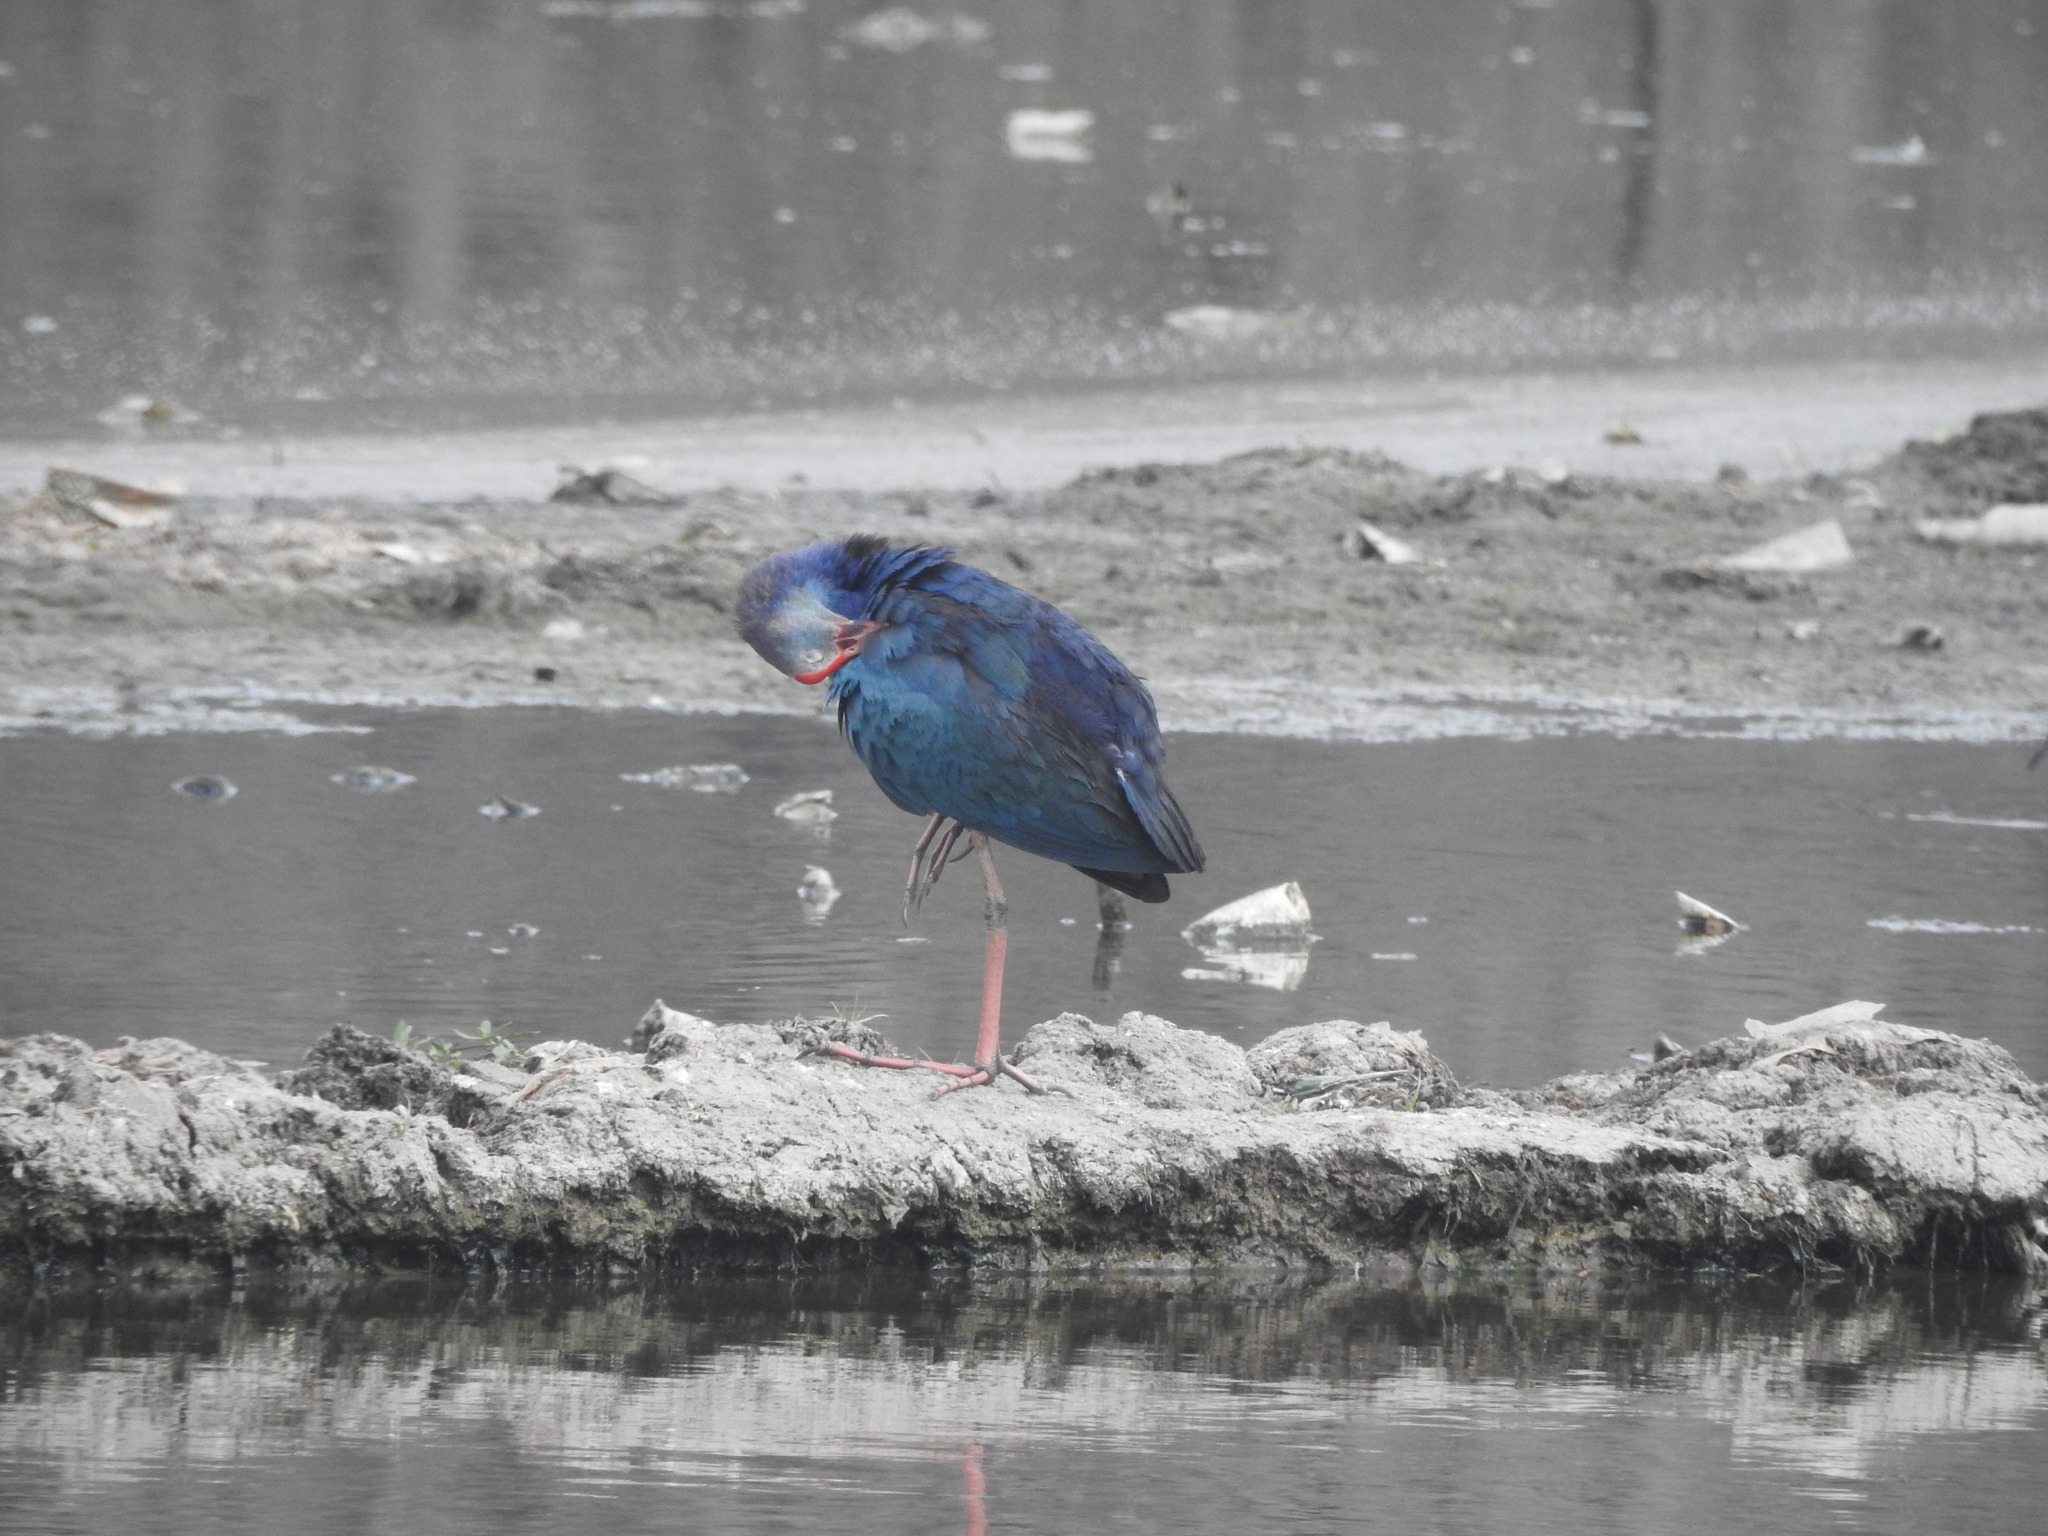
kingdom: Animalia
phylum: Chordata
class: Aves
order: Gruiformes
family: Rallidae
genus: Porphyrio
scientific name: Porphyrio porphyrio
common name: Purple swamphen
